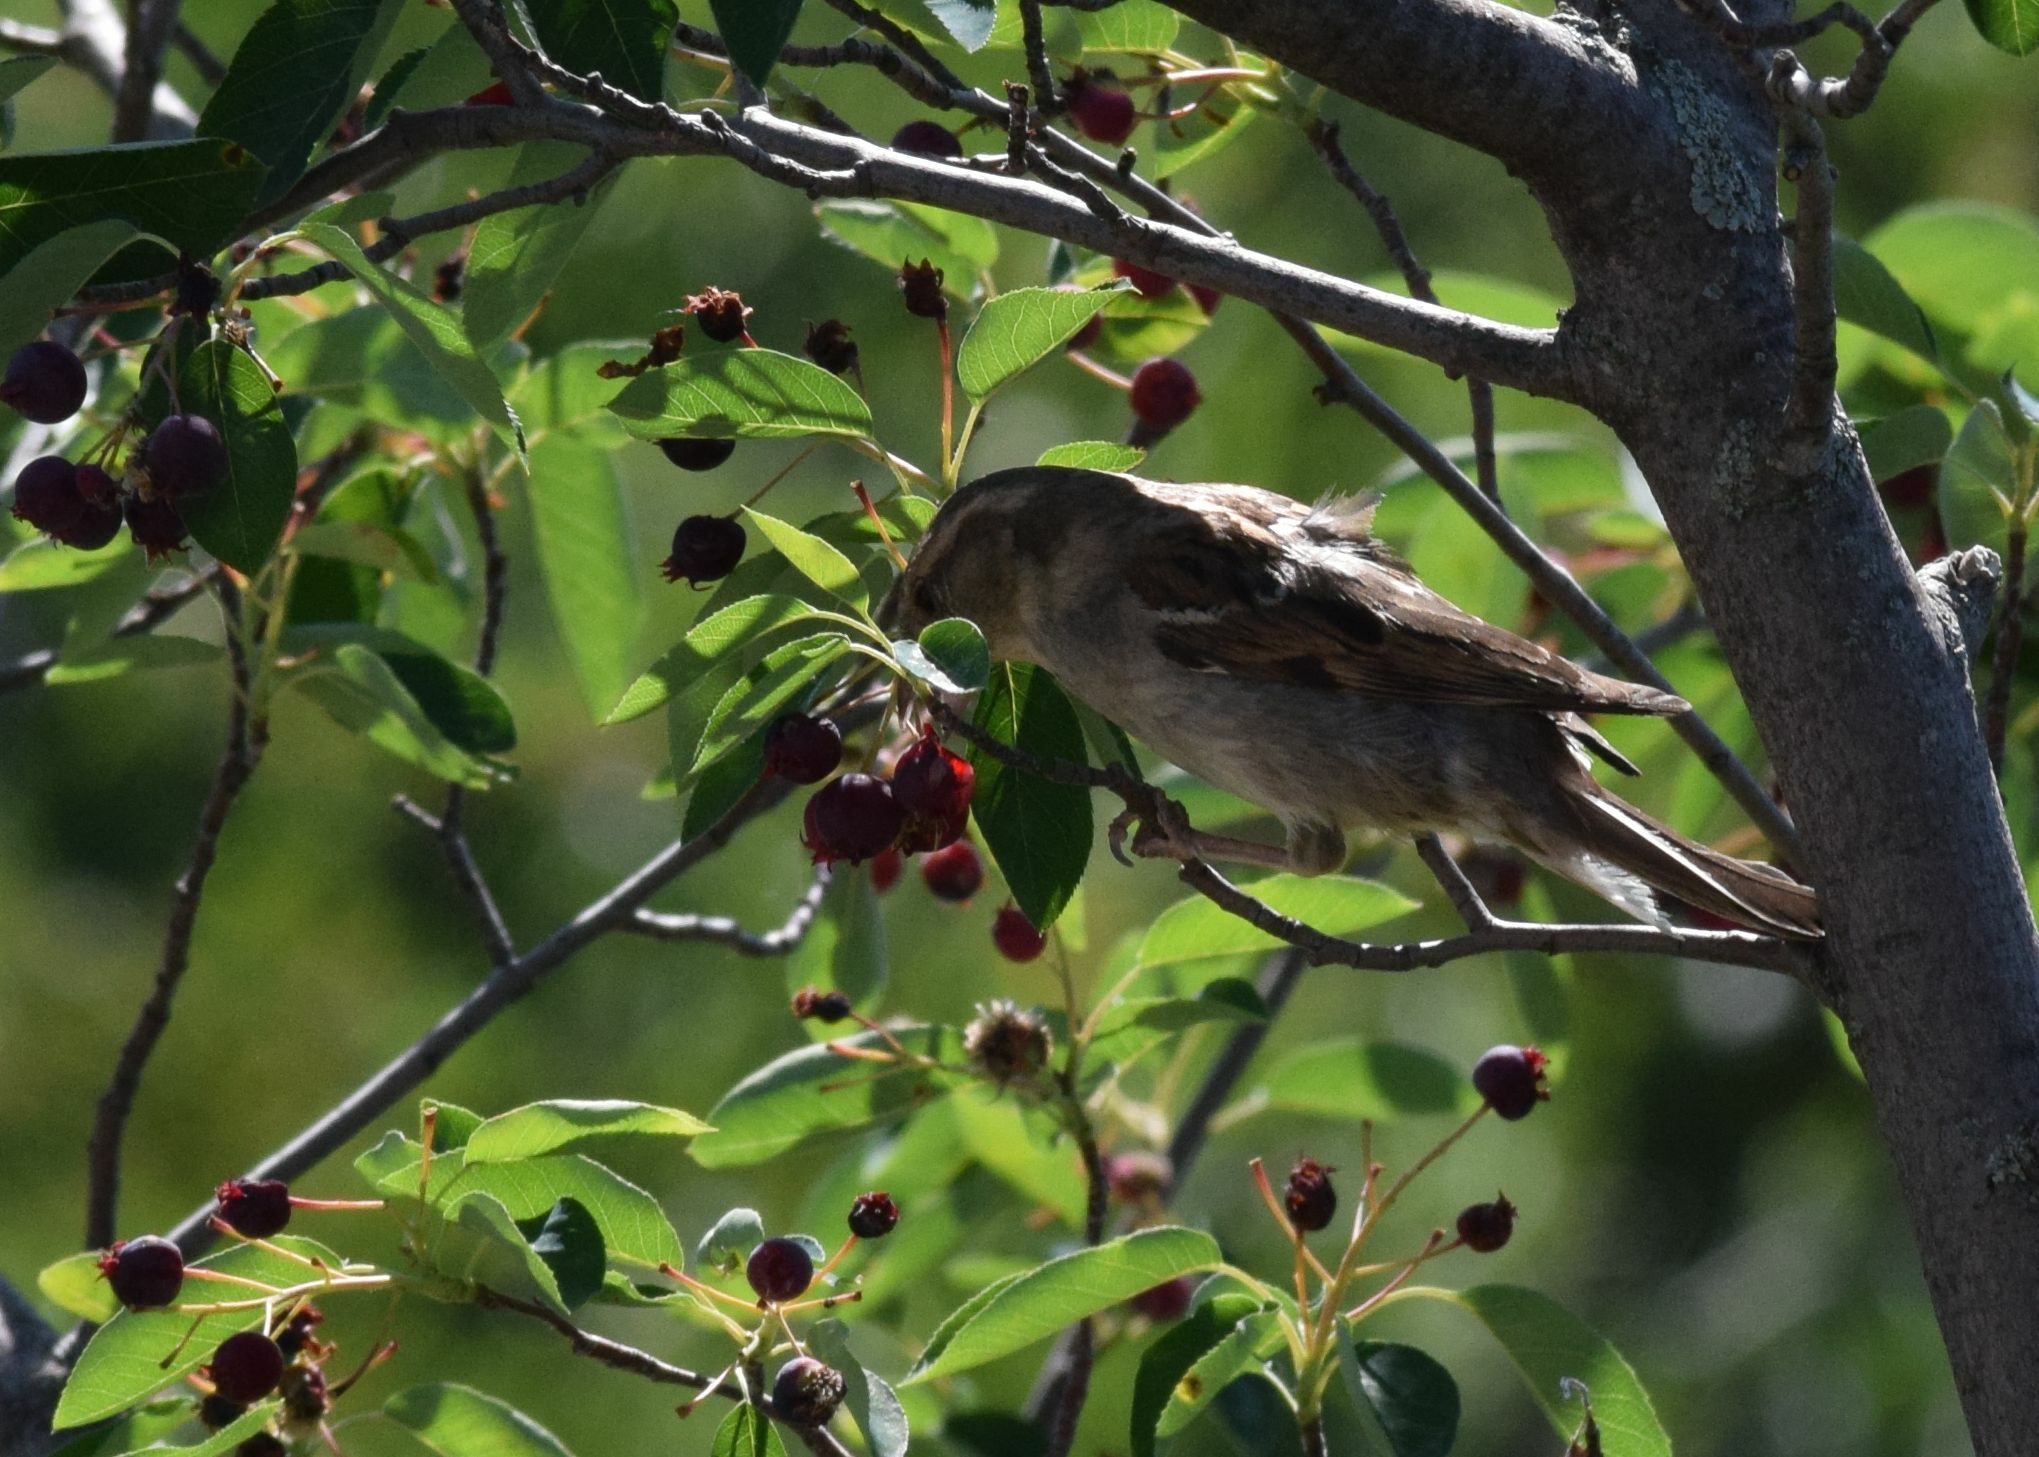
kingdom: Animalia
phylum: Chordata
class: Aves
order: Passeriformes
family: Passeridae
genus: Passer
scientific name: Passer domesticus
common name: House sparrow
